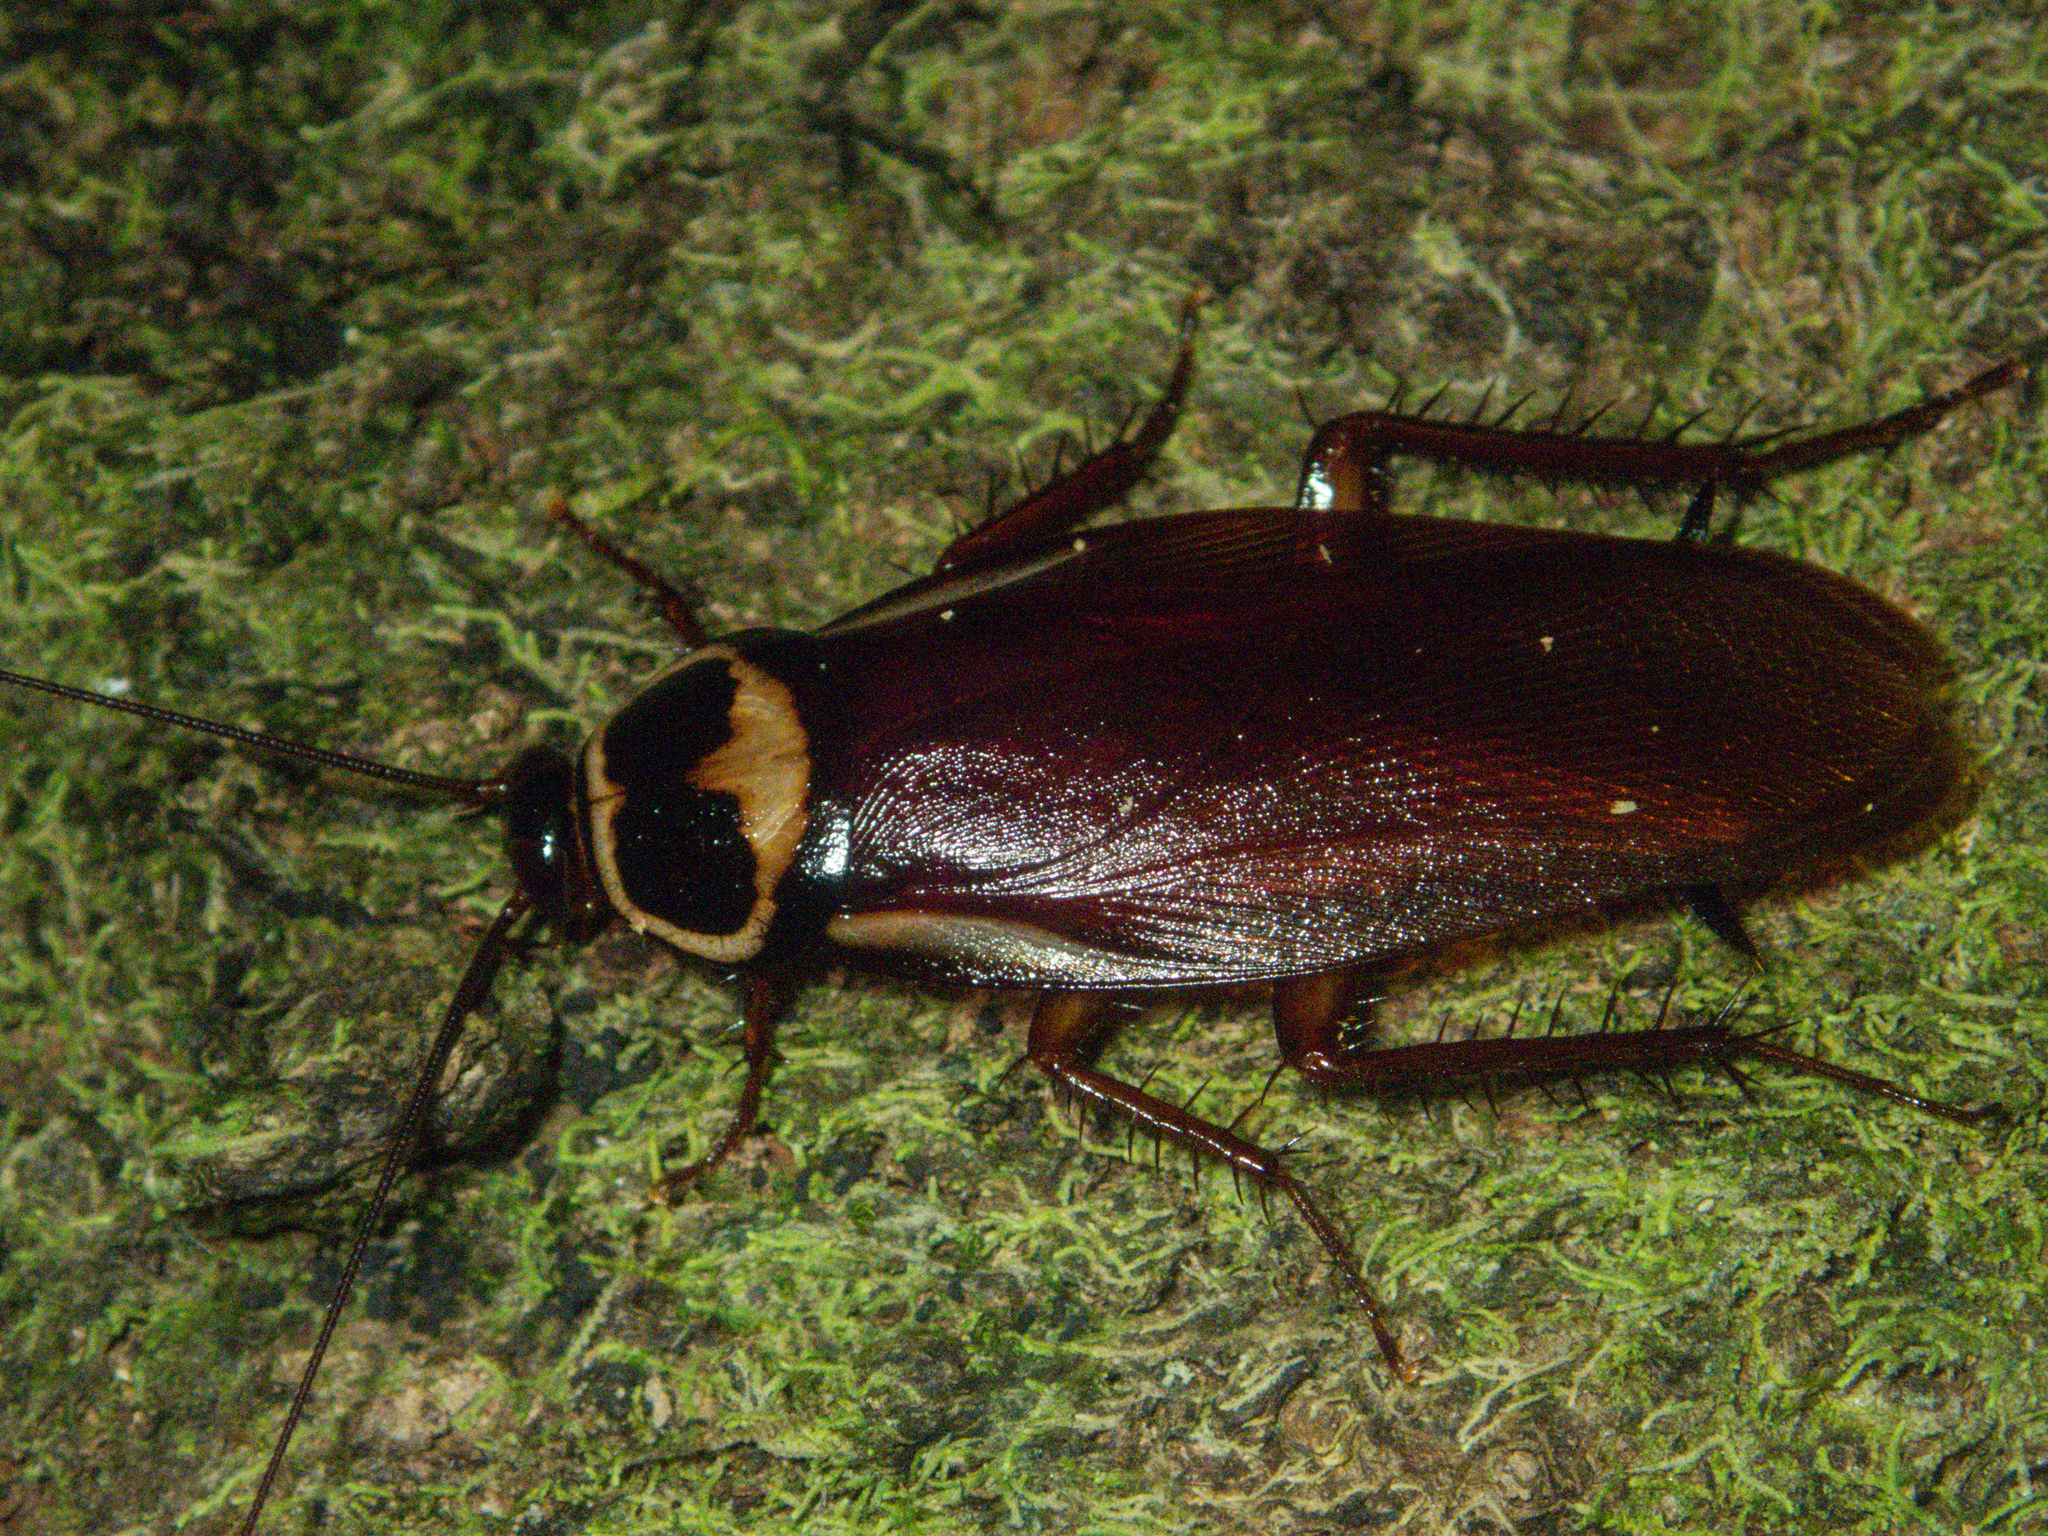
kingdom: Animalia
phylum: Arthropoda
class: Insecta
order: Blattodea
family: Blattidae
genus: Periplaneta
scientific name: Periplaneta australasiae
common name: Australian cockroach
